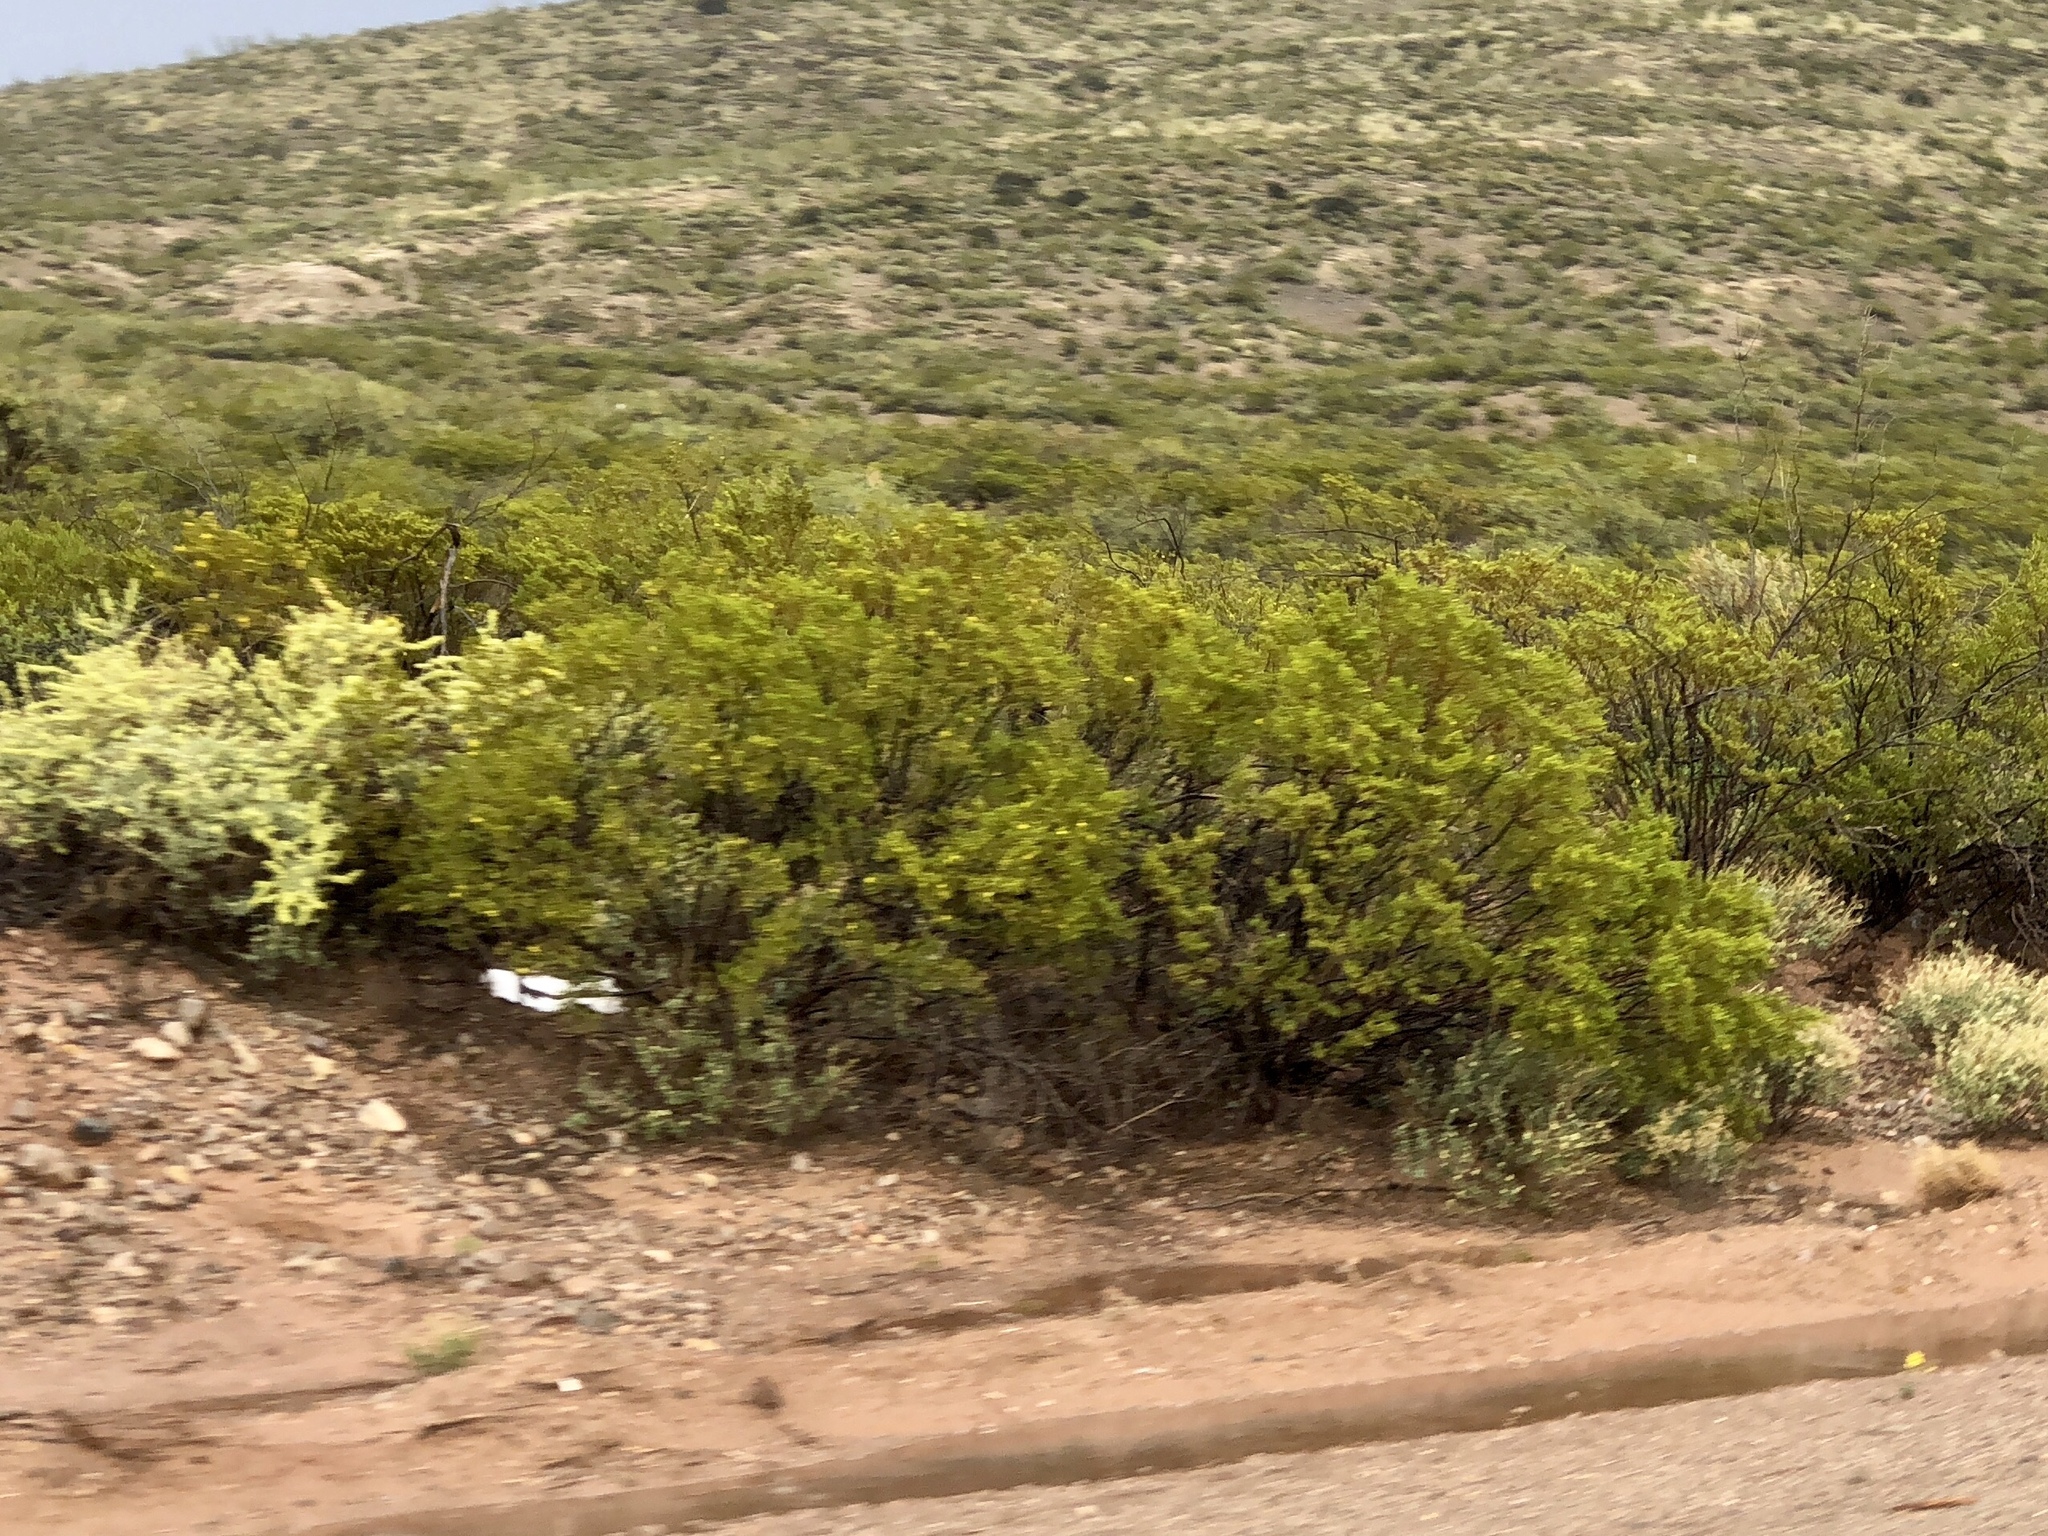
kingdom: Plantae
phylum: Tracheophyta
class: Magnoliopsida
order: Zygophyllales
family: Zygophyllaceae
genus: Larrea
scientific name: Larrea tridentata
